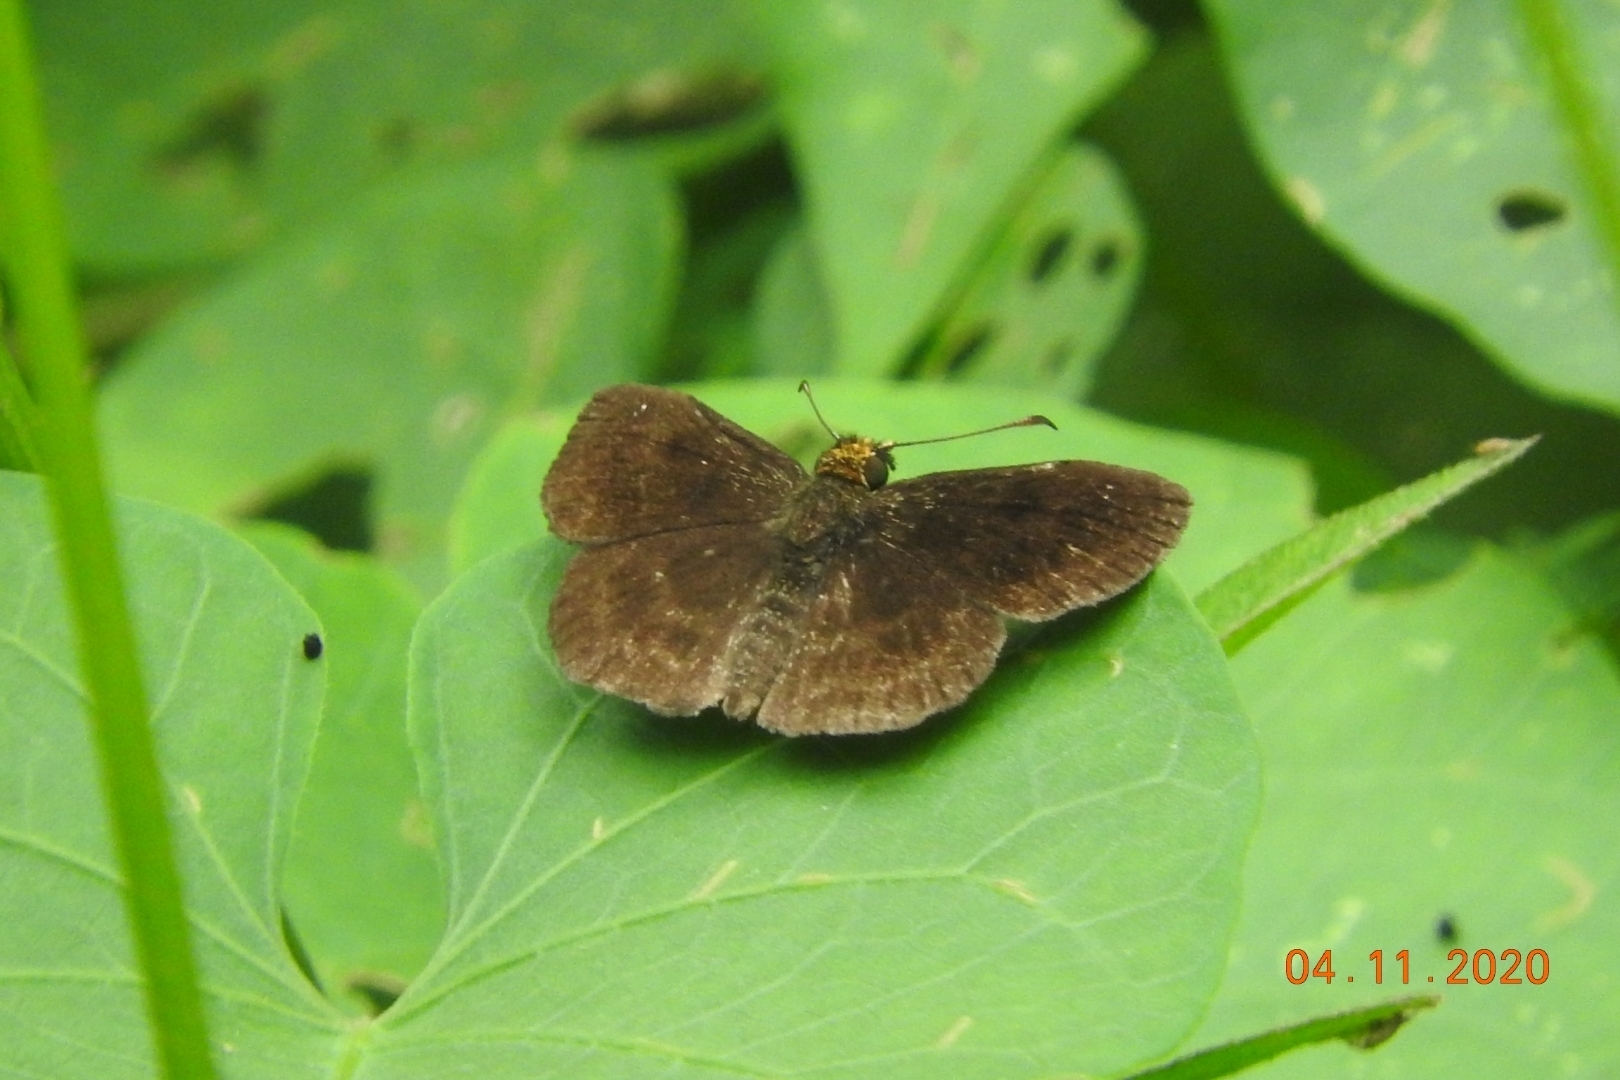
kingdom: Animalia
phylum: Arthropoda
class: Insecta
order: Lepidoptera
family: Hesperiidae
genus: Staphylus
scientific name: Staphylus vulgata
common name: Golden-snouted sootywing
